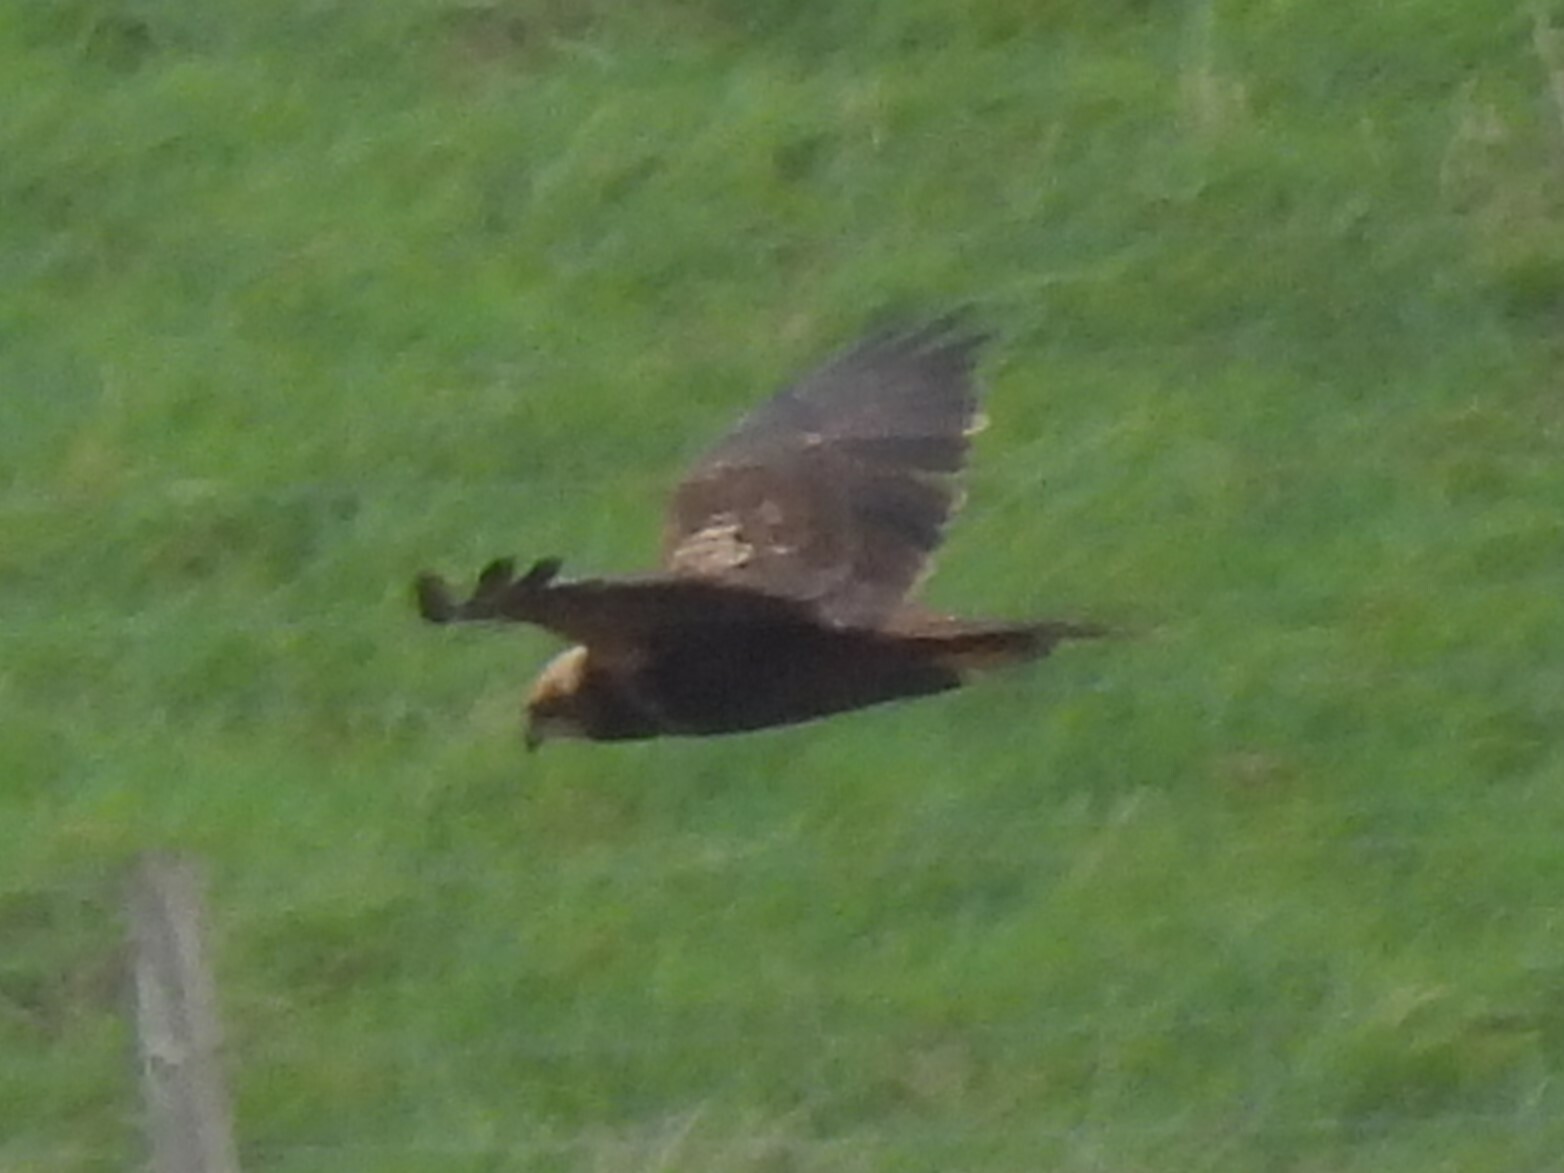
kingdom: Animalia
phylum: Chordata
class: Aves
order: Accipitriformes
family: Accipitridae
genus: Circus
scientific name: Circus aeruginosus
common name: Western marsh harrier
